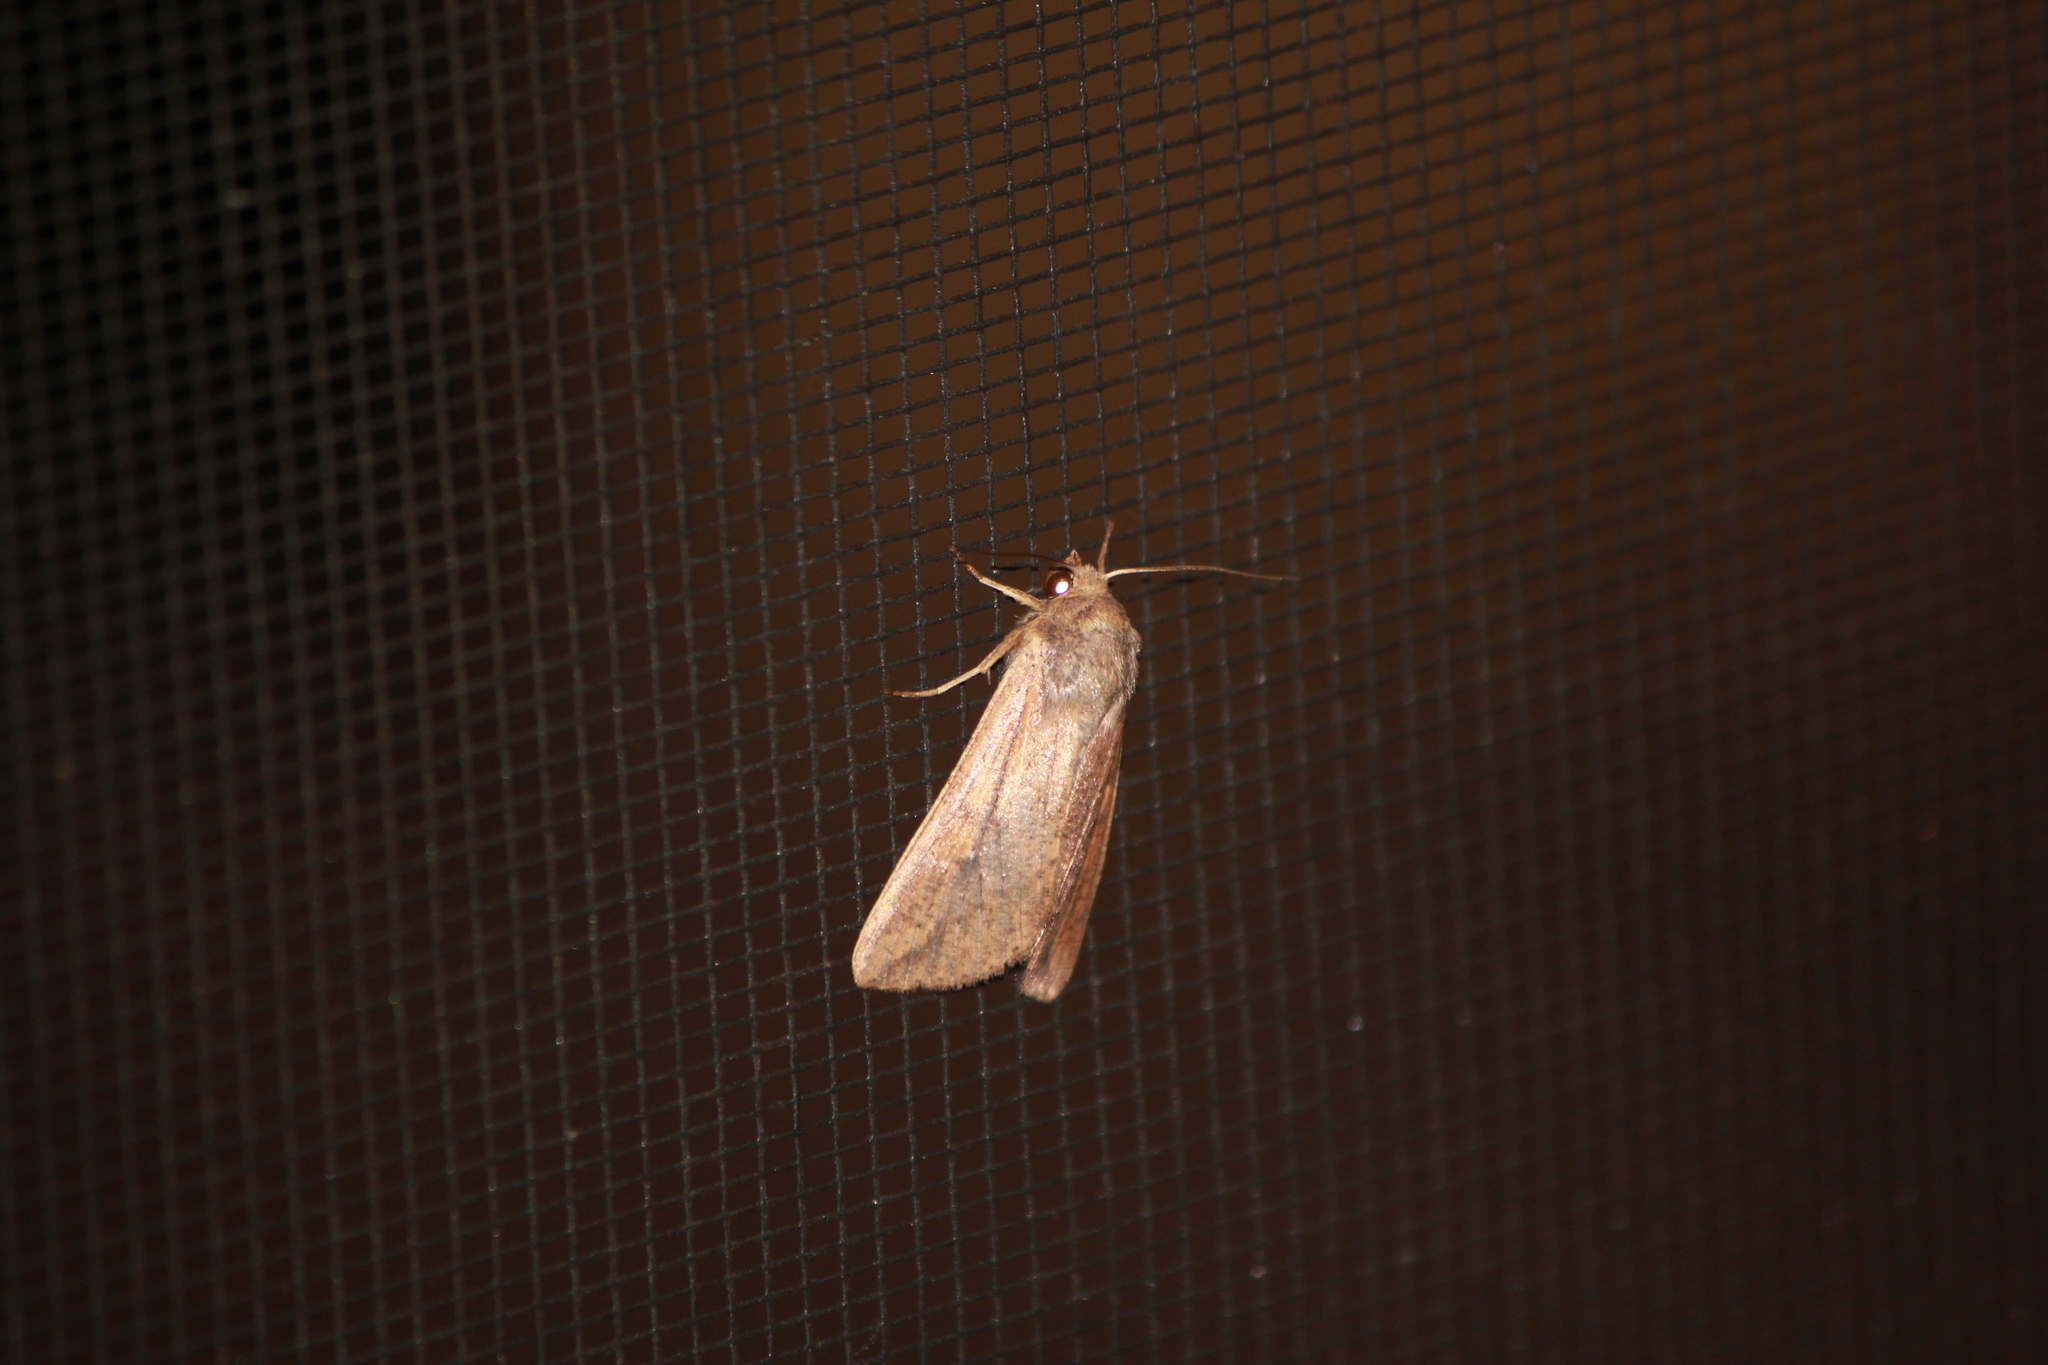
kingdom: Animalia
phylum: Arthropoda
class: Insecta
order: Lepidoptera
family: Noctuidae
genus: Mythimna
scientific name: Mythimna unipuncta
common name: White-speck
